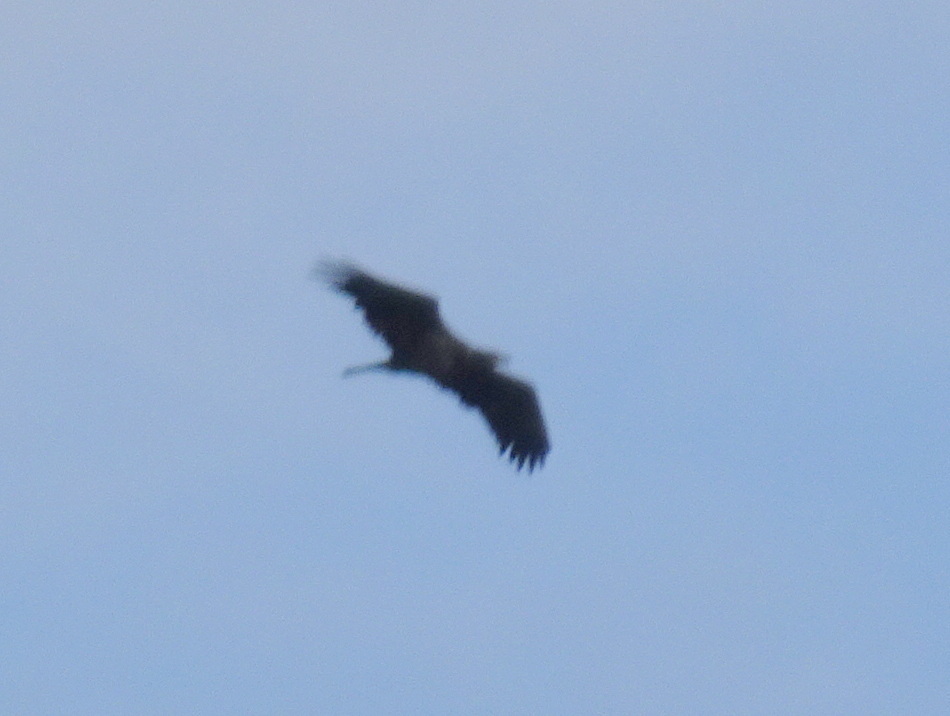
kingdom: Animalia
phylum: Chordata
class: Aves
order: Accipitriformes
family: Accipitridae
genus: Haliaeetus
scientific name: Haliaeetus leucocephalus
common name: Bald eagle
